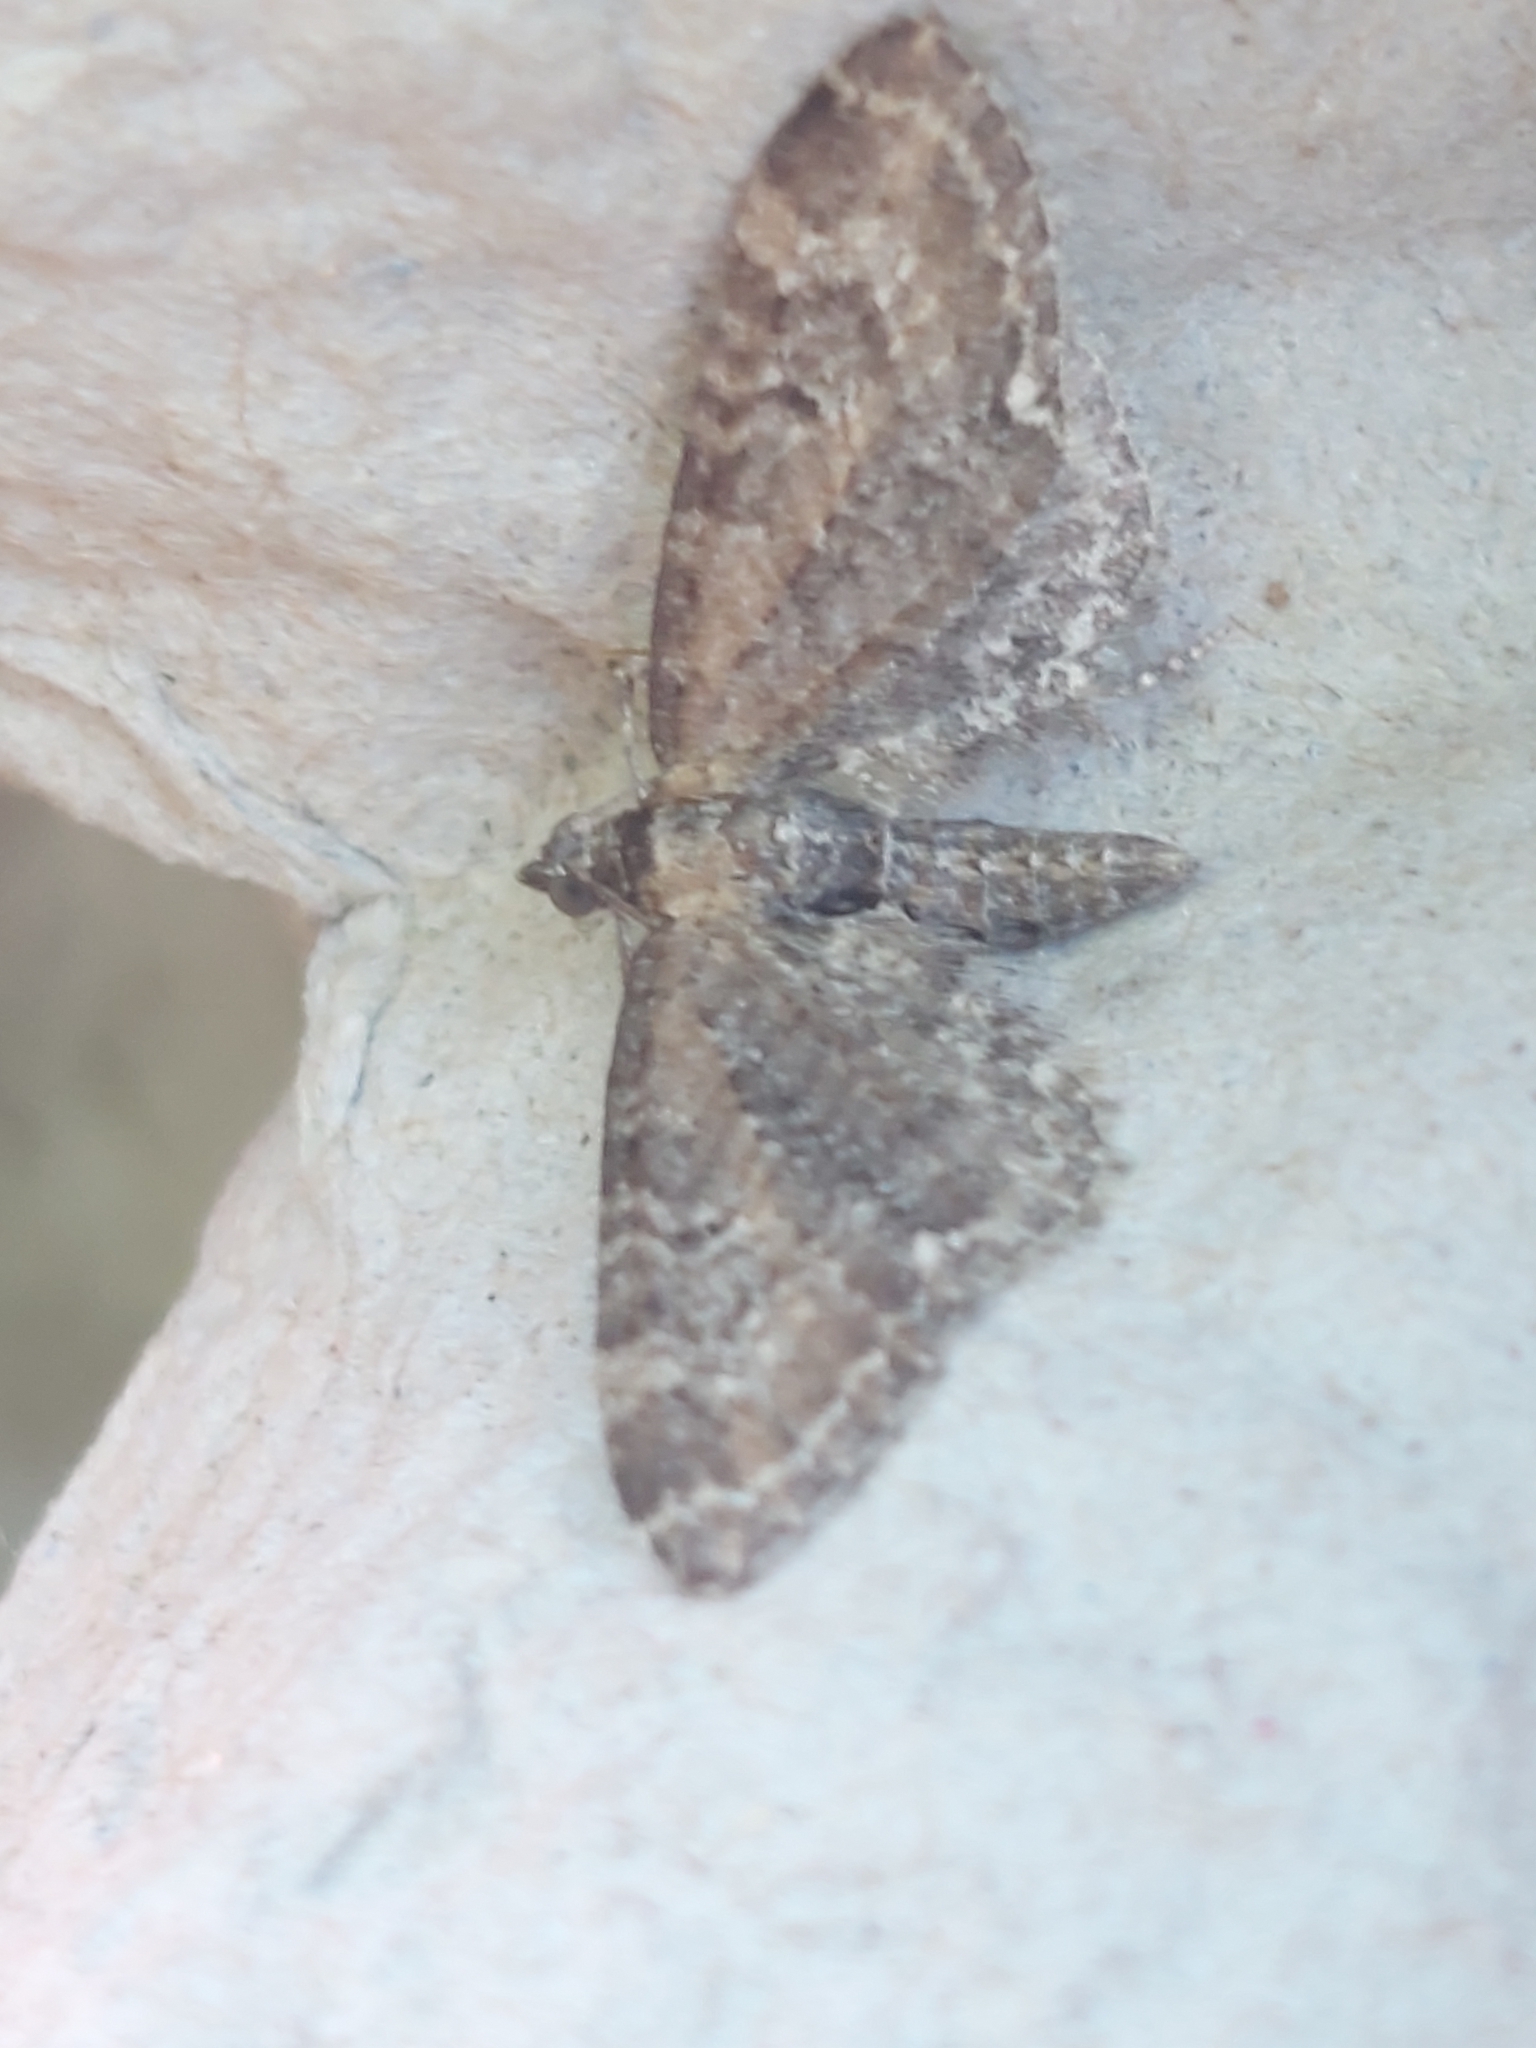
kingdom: Animalia
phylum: Arthropoda
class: Insecta
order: Lepidoptera
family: Geometridae
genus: Eupithecia
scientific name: Eupithecia vulgata
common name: Common pug
